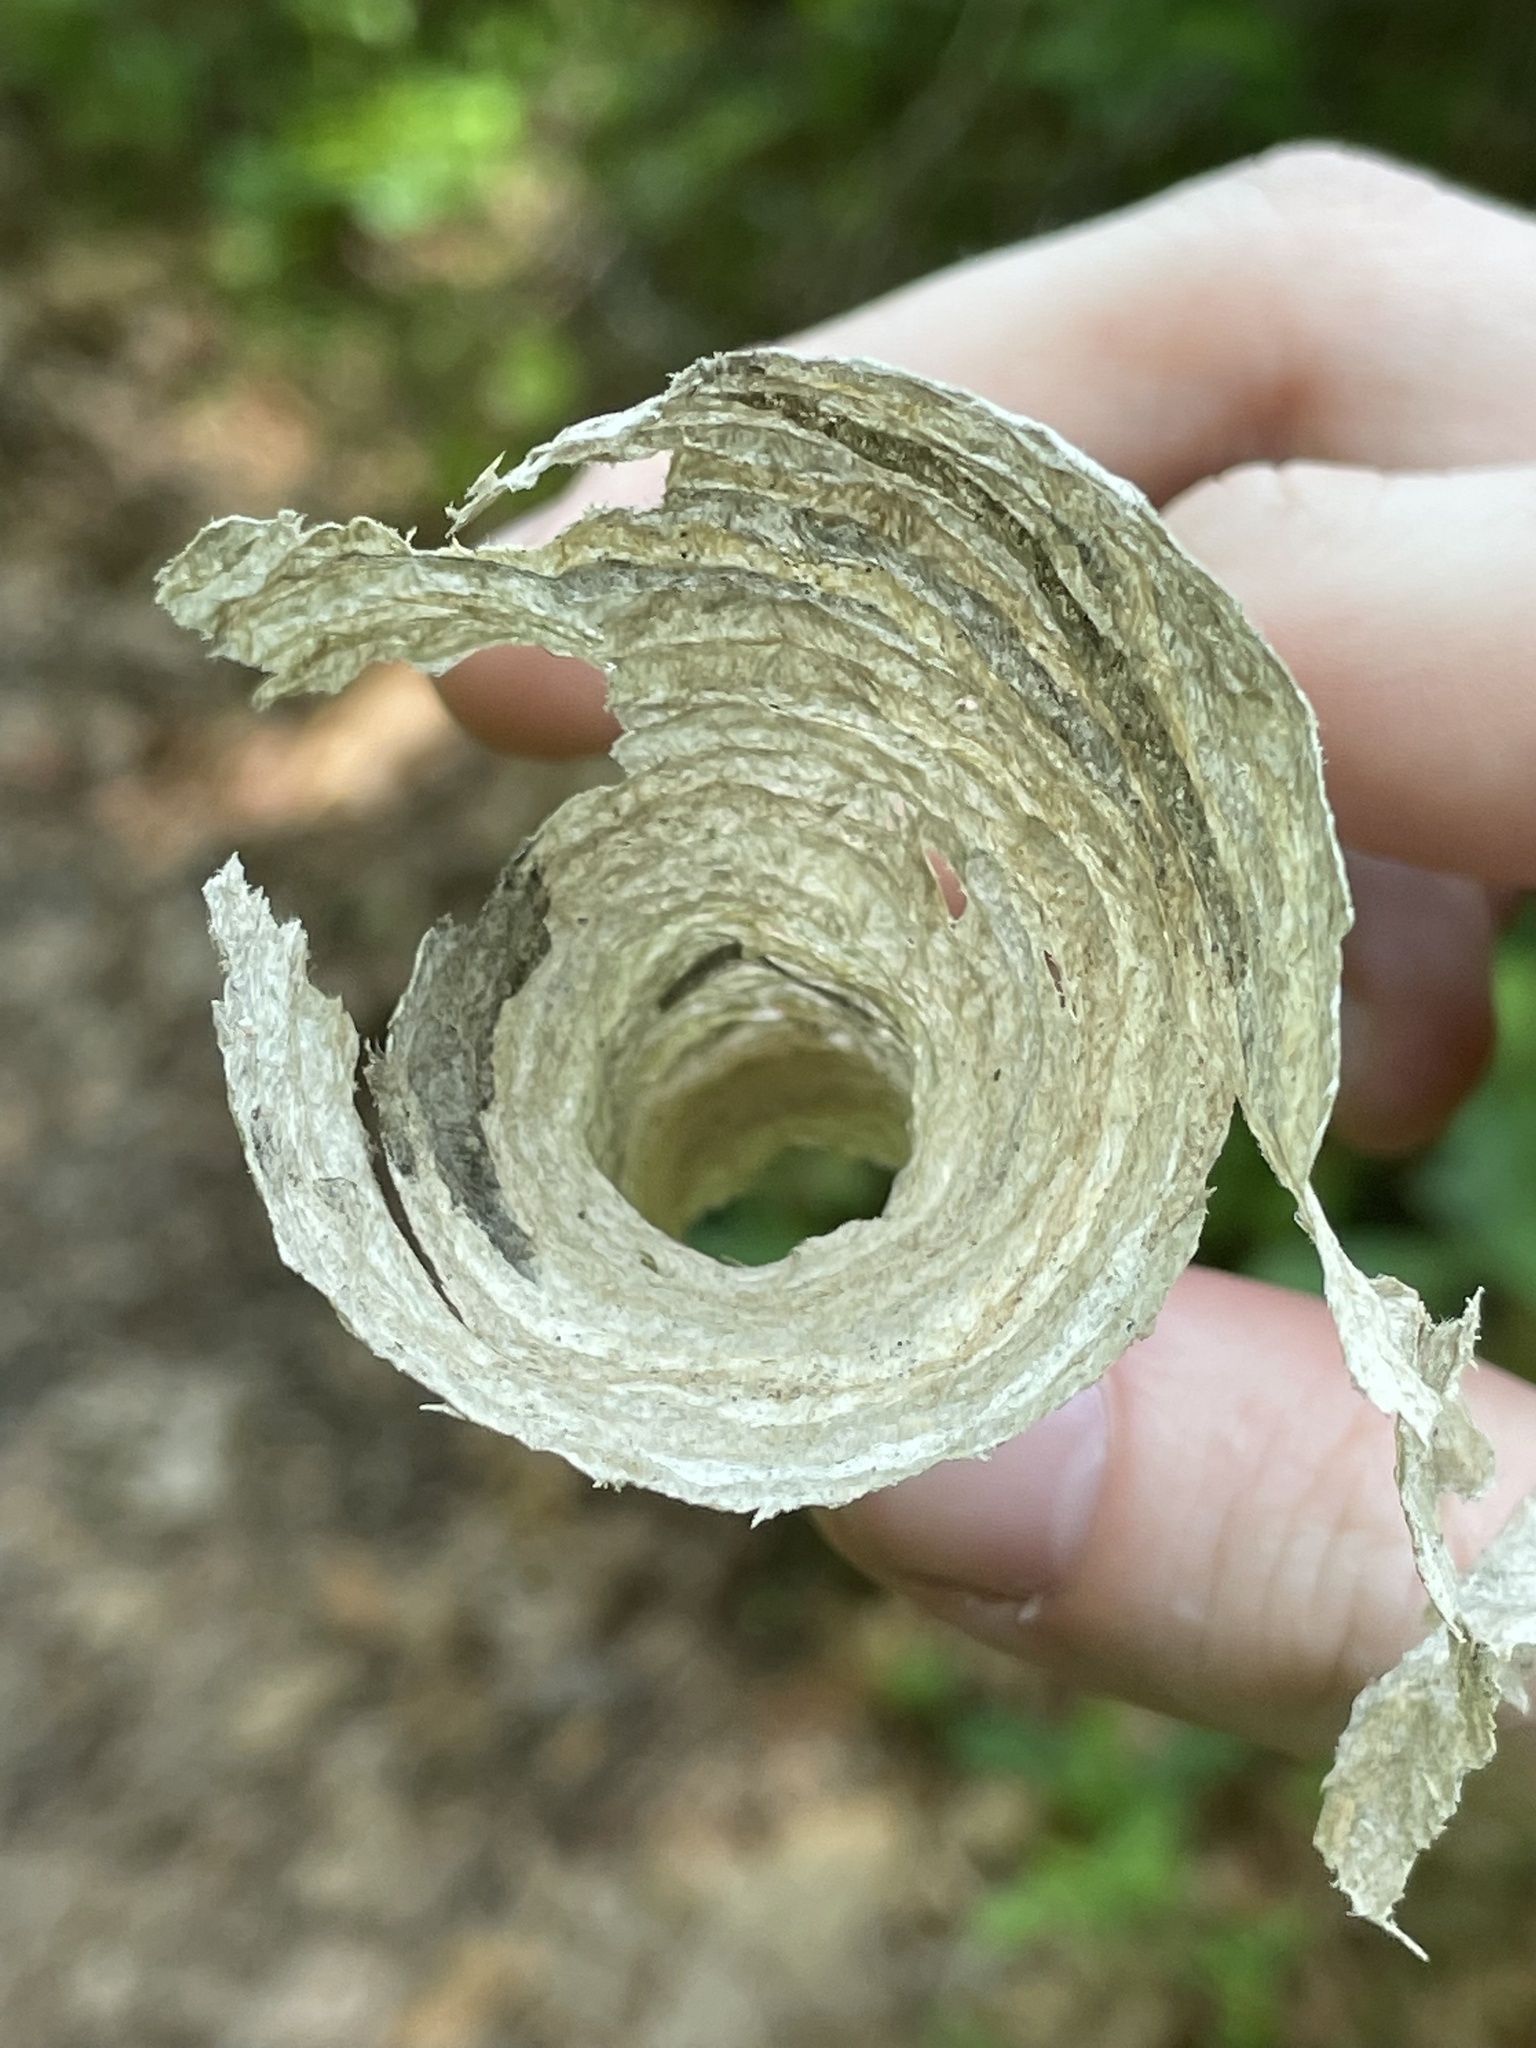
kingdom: Animalia
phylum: Arthropoda
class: Insecta
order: Hymenoptera
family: Vespidae
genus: Dolichovespula
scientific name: Dolichovespula maculata
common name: Bald-faced hornet
